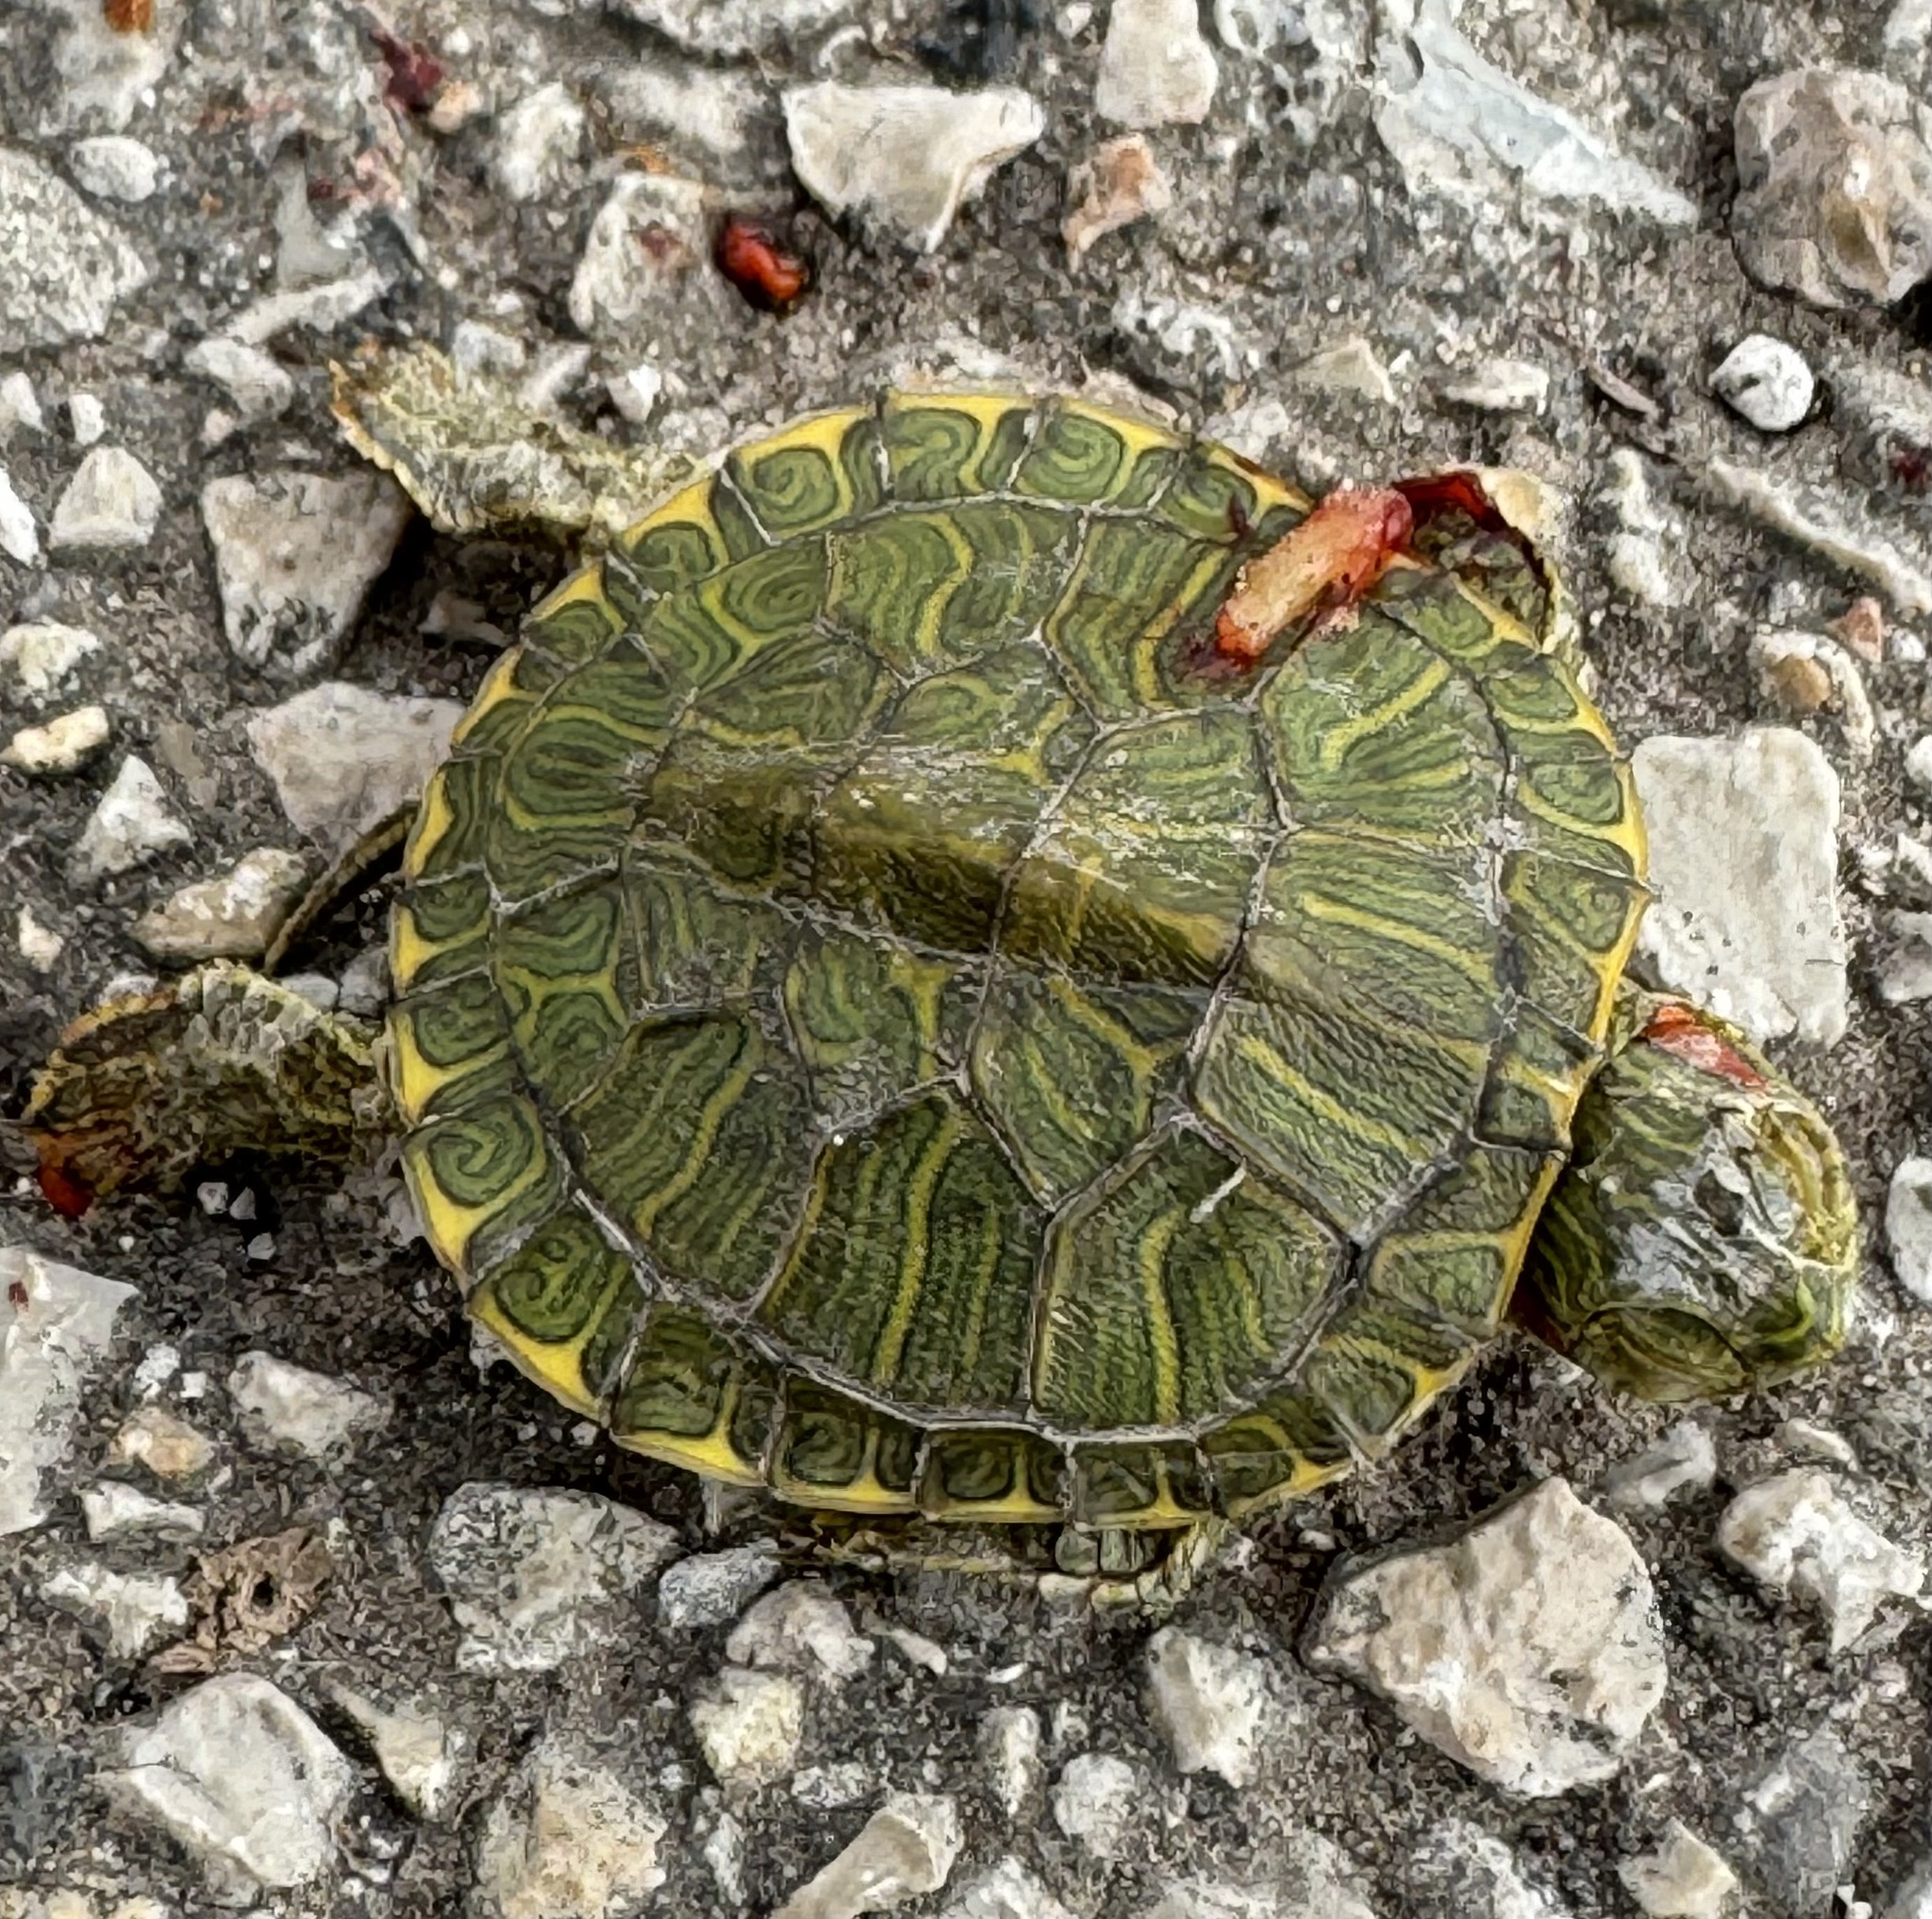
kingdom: Animalia
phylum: Chordata
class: Testudines
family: Emydidae
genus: Trachemys
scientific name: Trachemys scripta
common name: Slider
